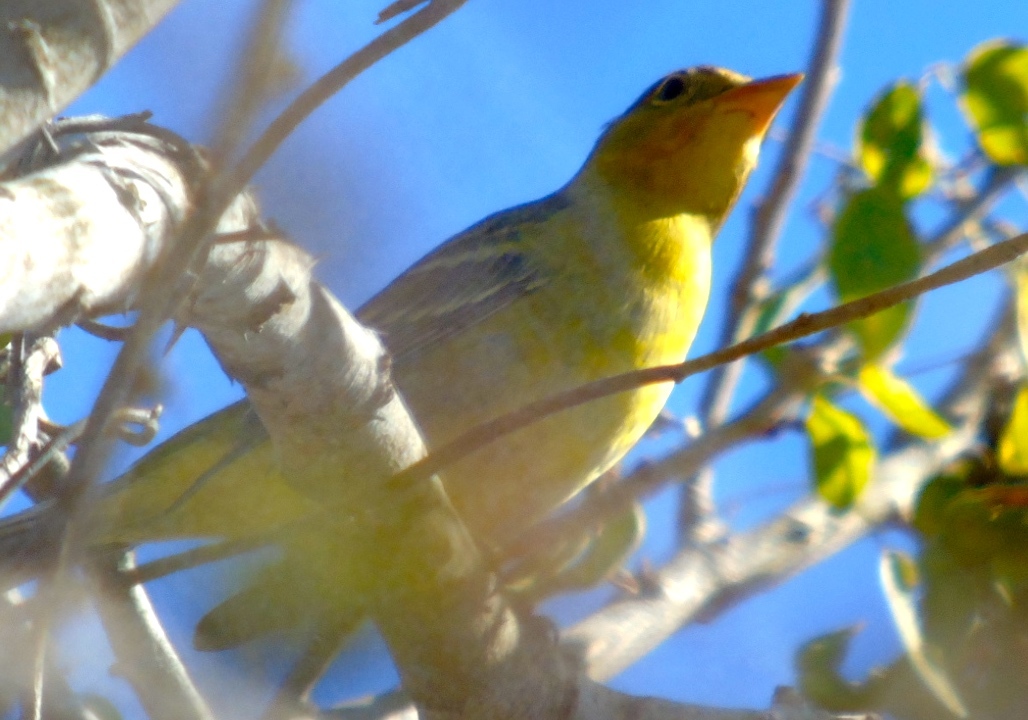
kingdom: Animalia
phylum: Chordata
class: Aves
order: Passeriformes
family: Cardinalidae
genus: Piranga
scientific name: Piranga ludoviciana
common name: Western tanager
